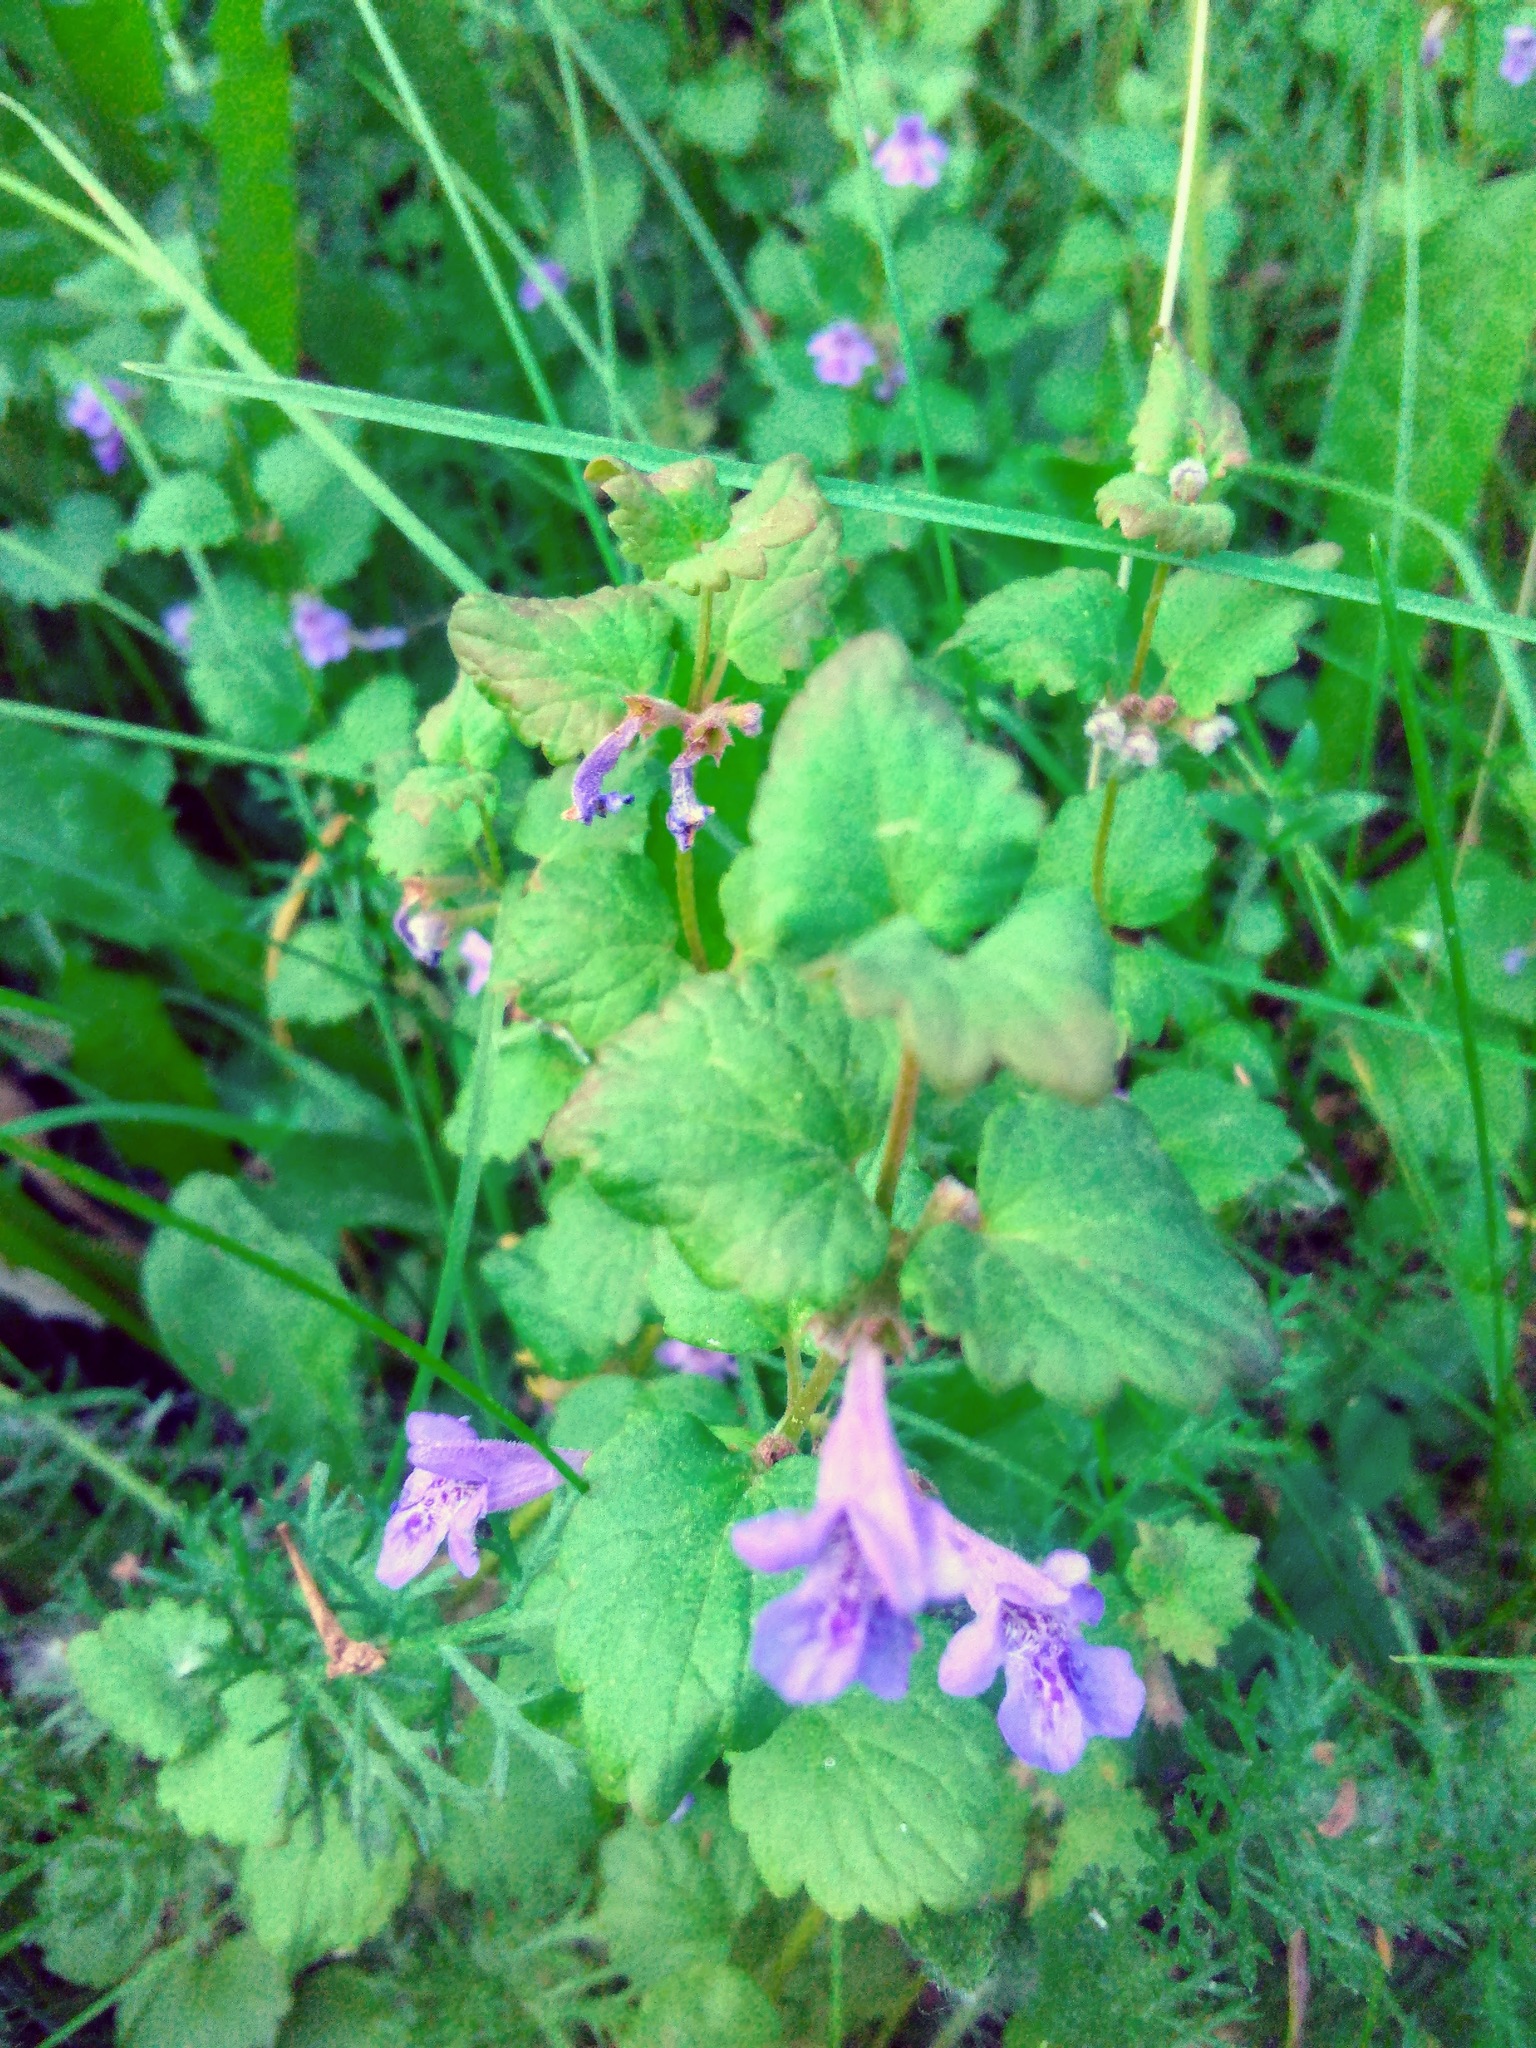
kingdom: Plantae
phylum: Tracheophyta
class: Magnoliopsida
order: Lamiales
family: Lamiaceae
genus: Glechoma
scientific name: Glechoma hederacea
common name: Ground ivy
